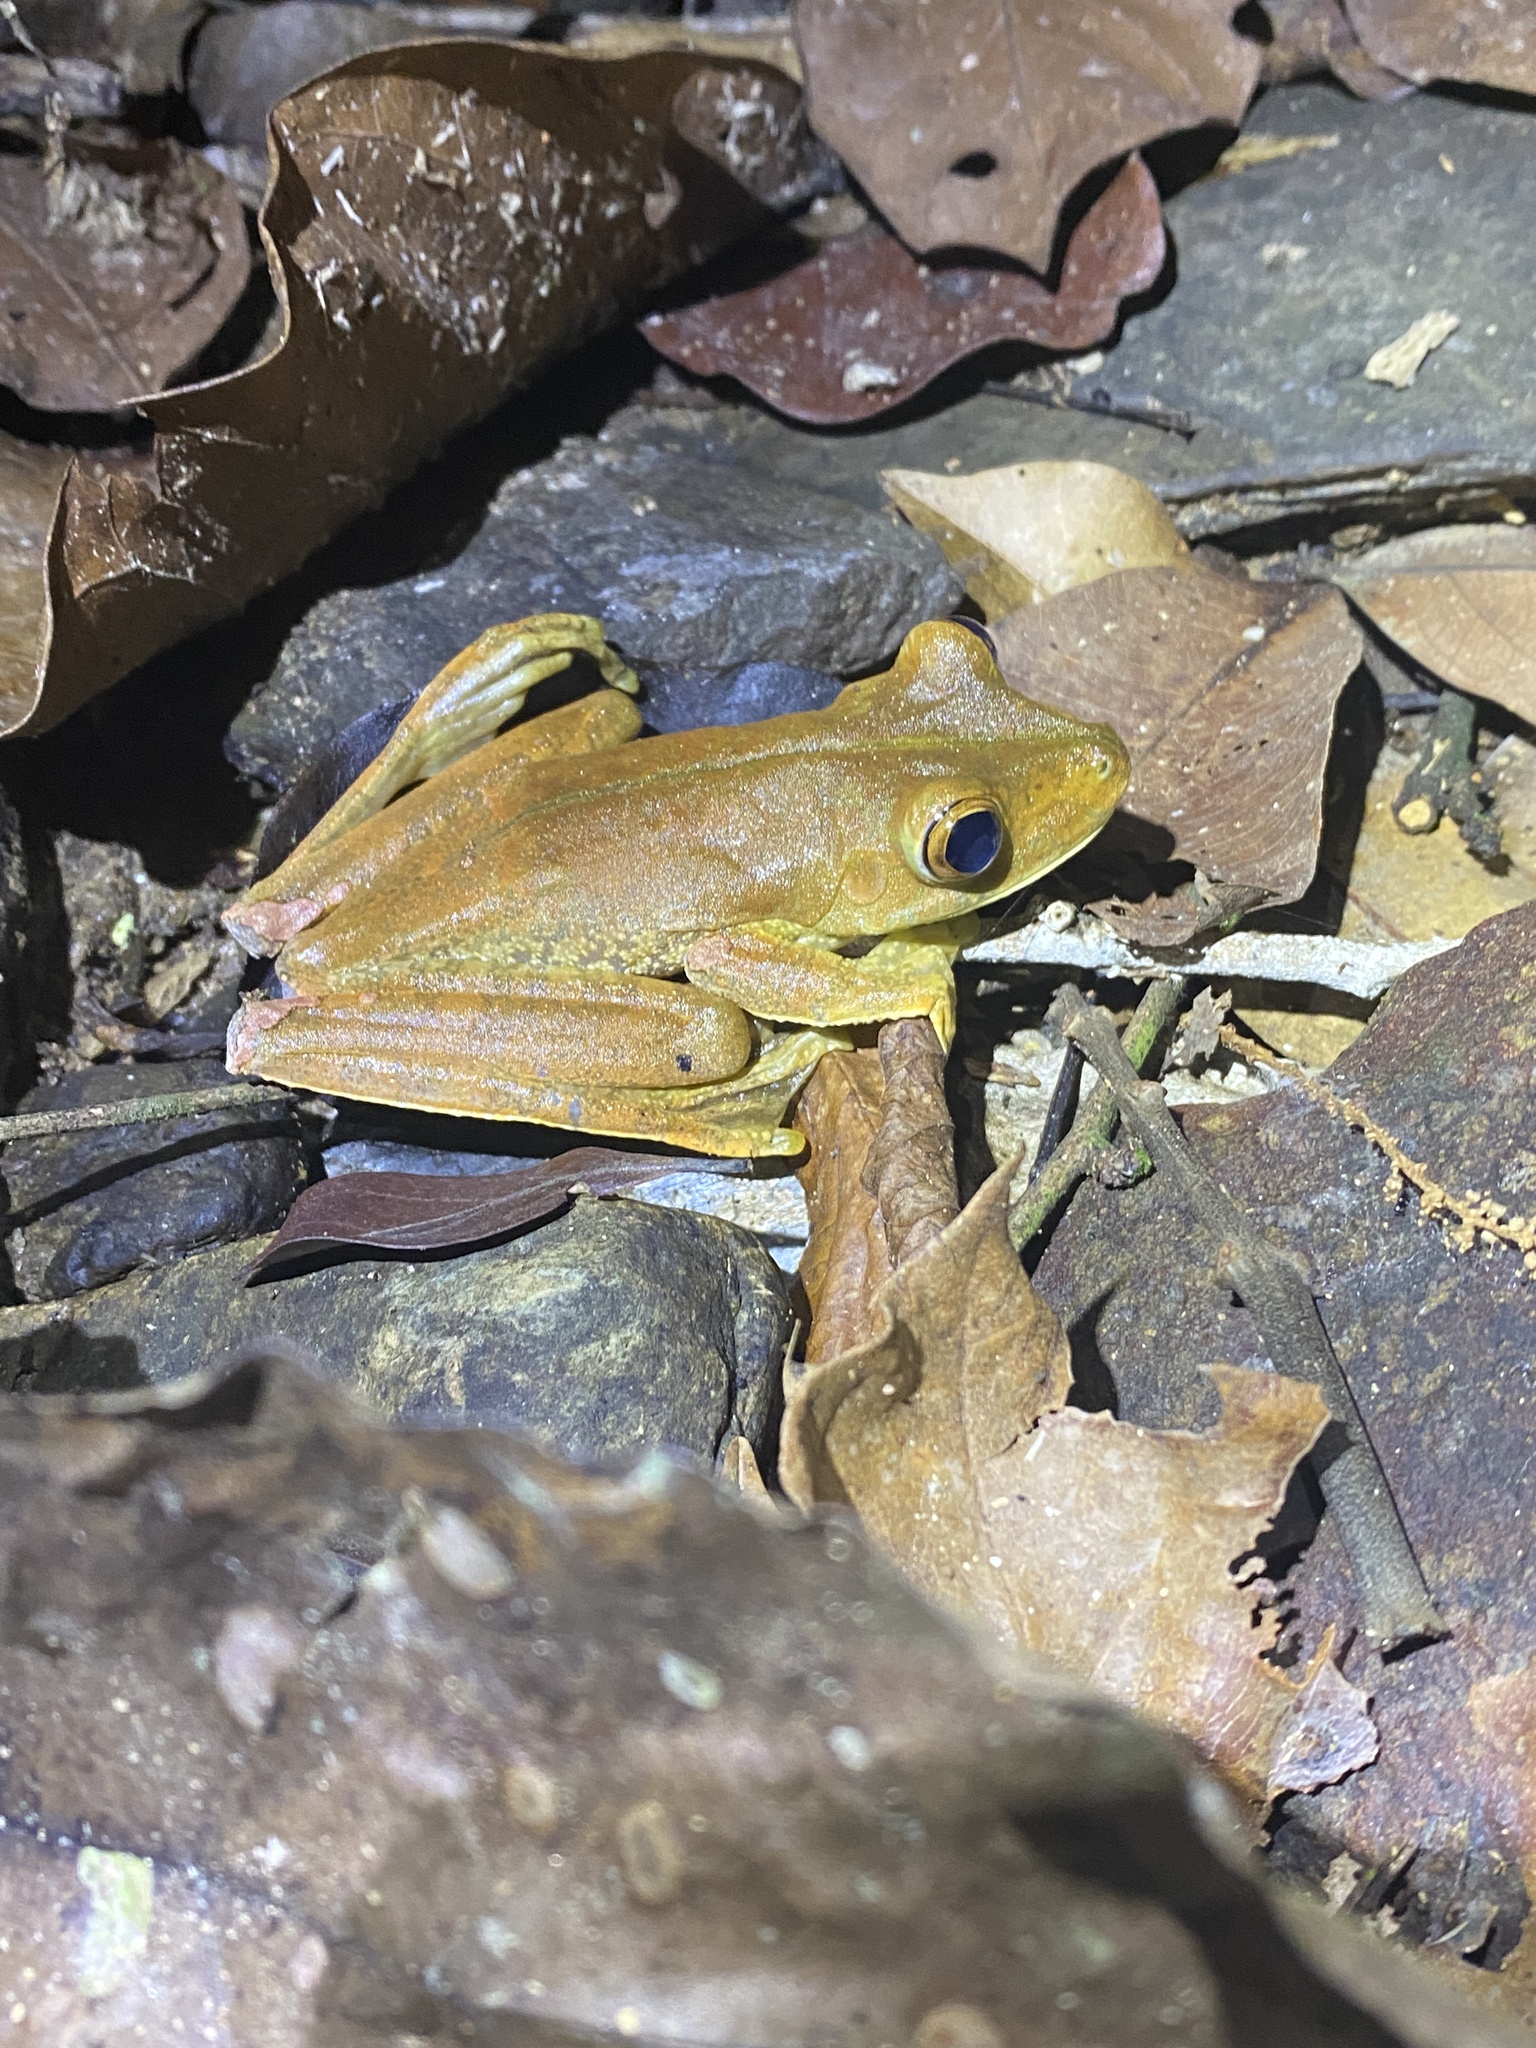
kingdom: Animalia
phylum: Chordata
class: Amphibia
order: Anura
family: Hylidae
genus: Boana
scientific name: Boana boans
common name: Giant gladiator treefrog
